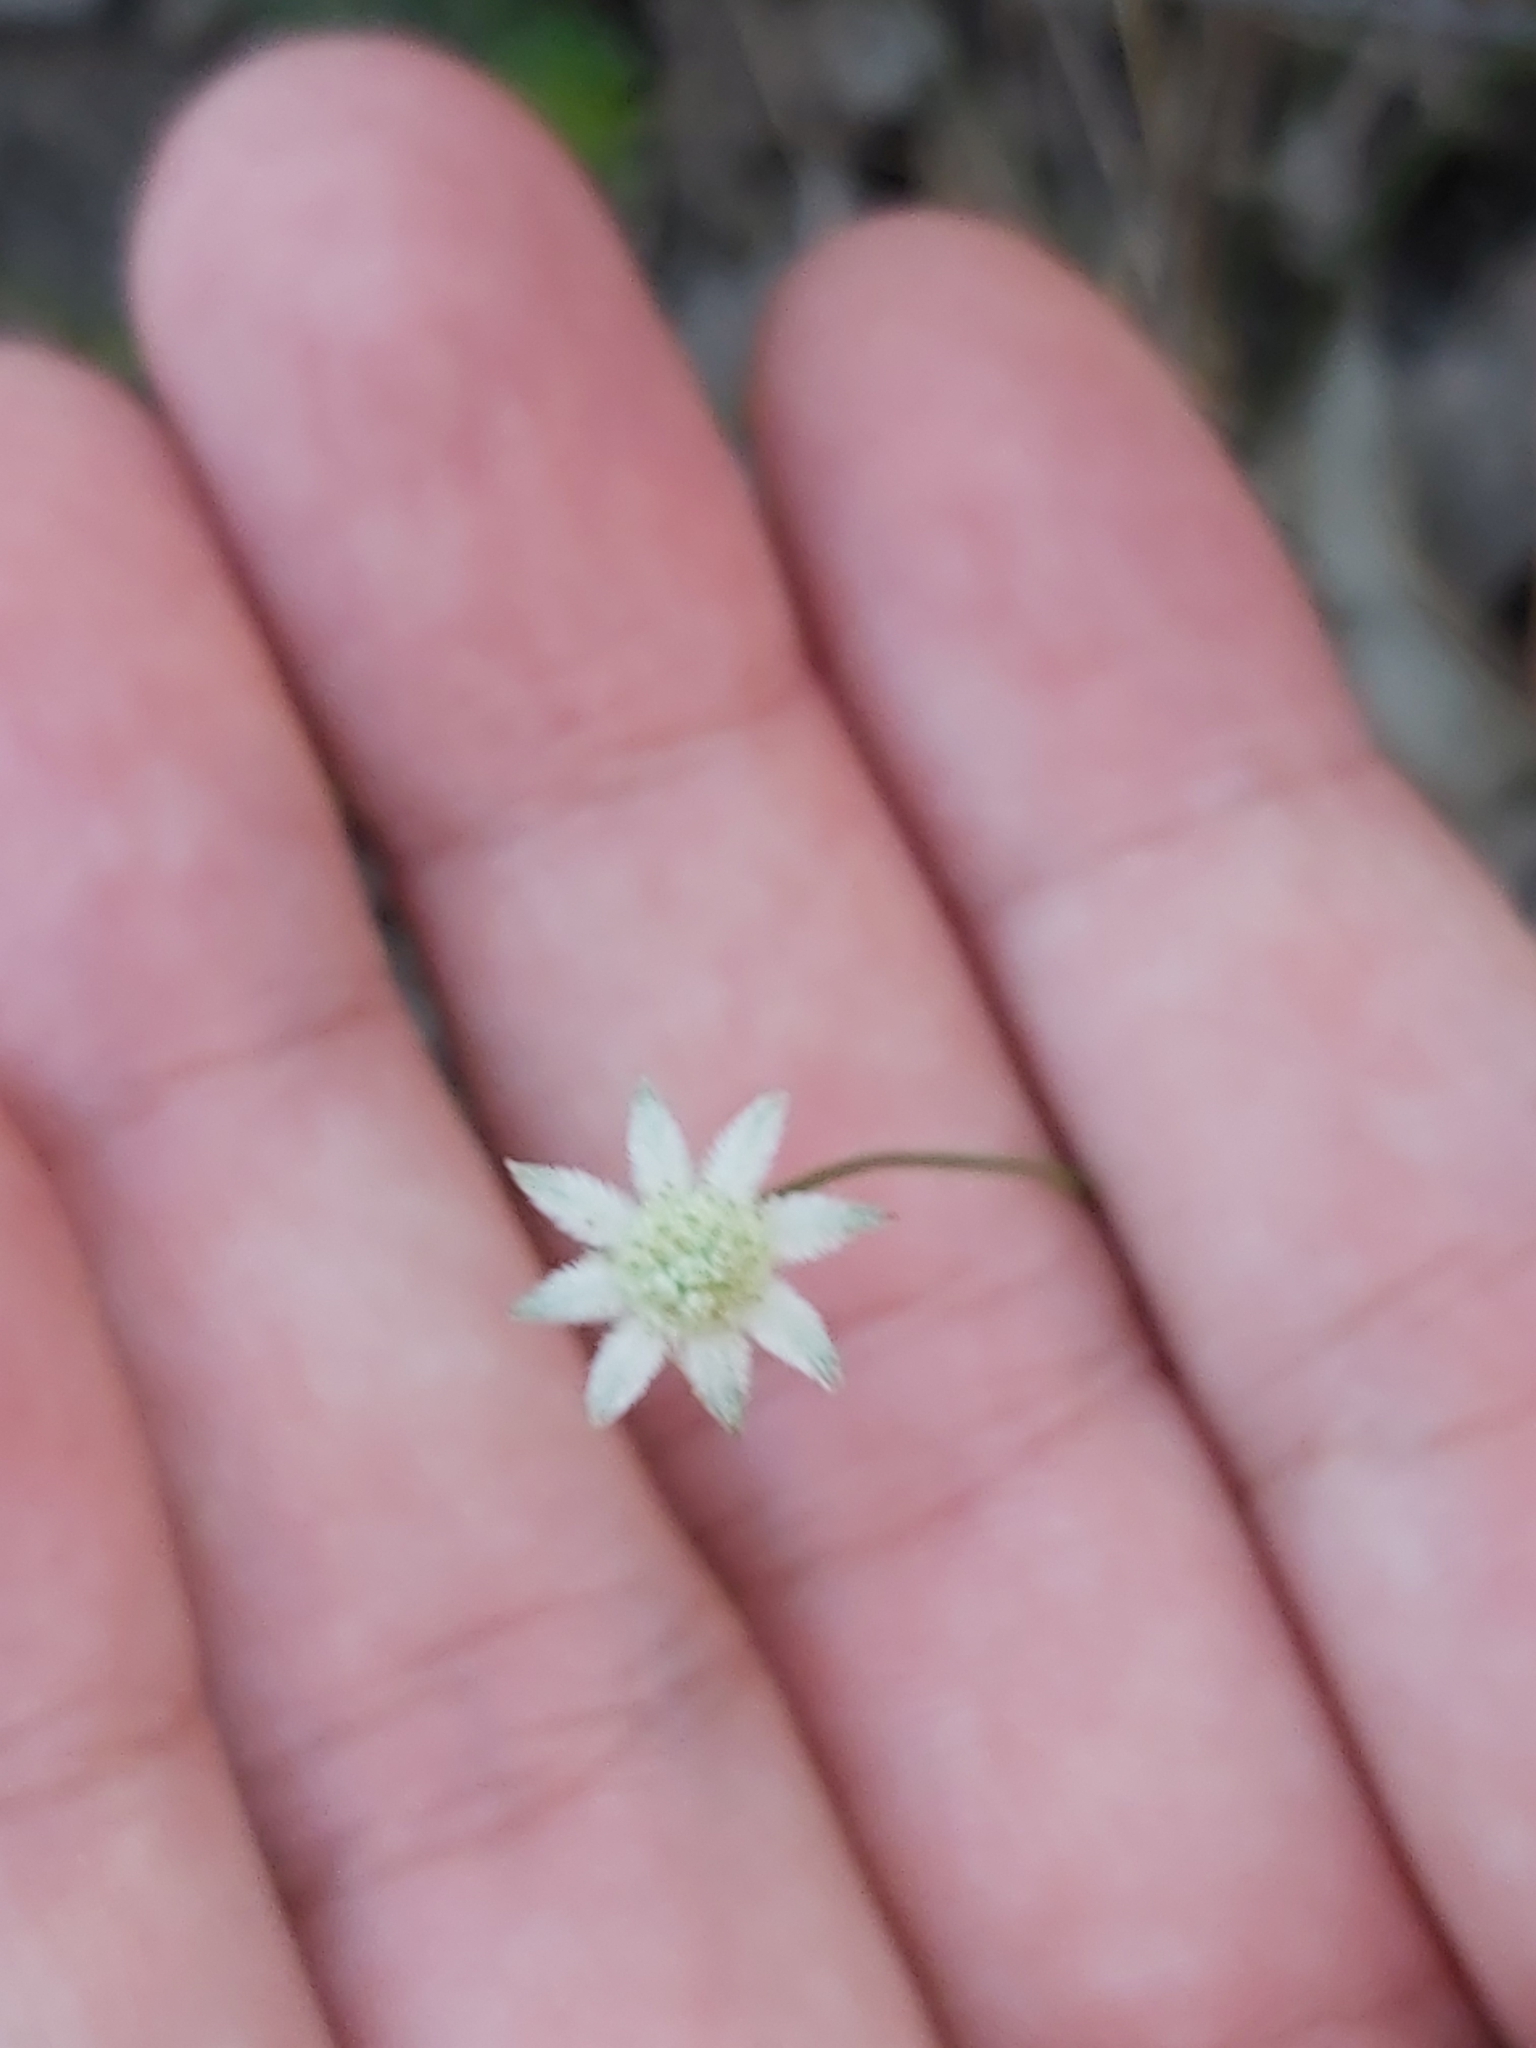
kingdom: Plantae
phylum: Tracheophyta
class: Magnoliopsida
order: Apiales
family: Apiaceae
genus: Actinotus
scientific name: Actinotus minor
